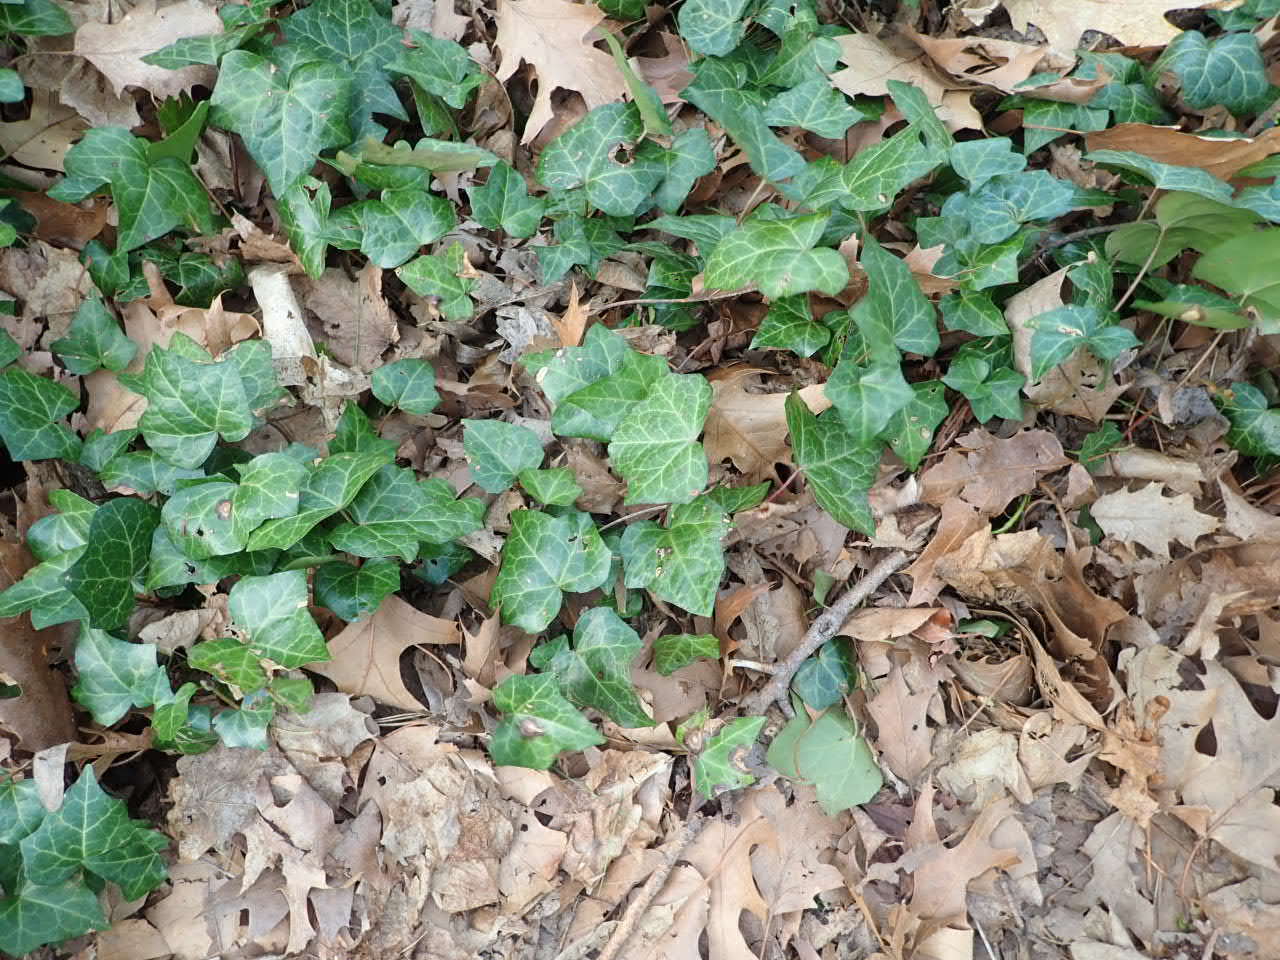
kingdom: Plantae
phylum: Tracheophyta
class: Magnoliopsida
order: Apiales
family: Araliaceae
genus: Hedera
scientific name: Hedera helix
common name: Ivy
